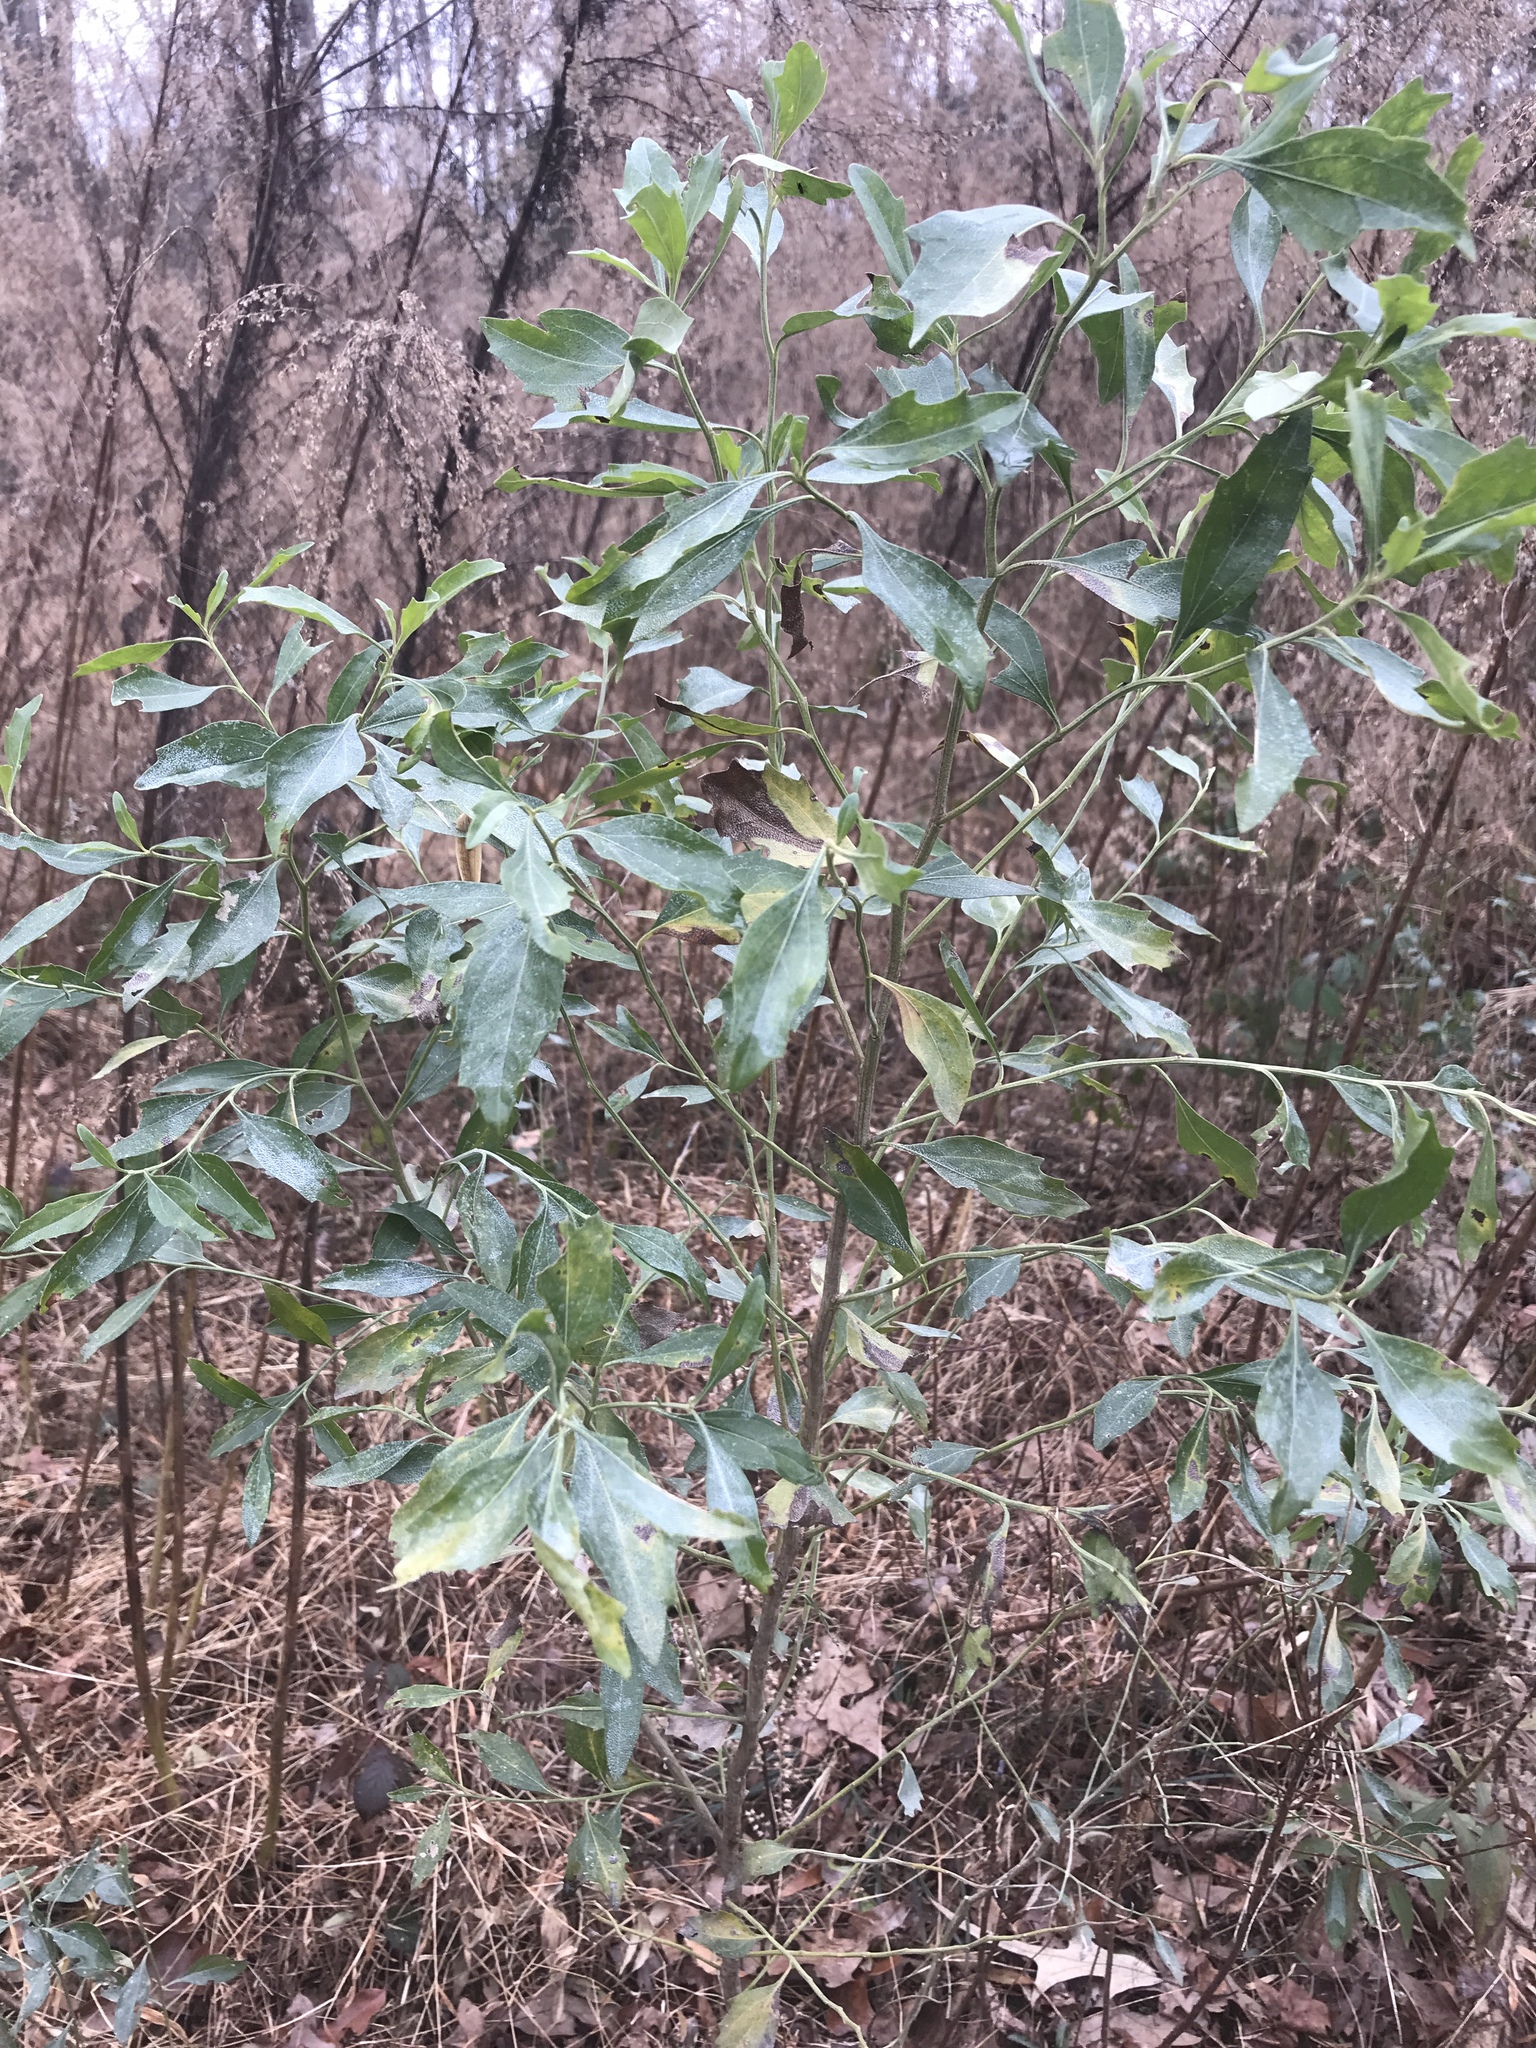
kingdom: Plantae
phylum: Tracheophyta
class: Magnoliopsida
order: Asterales
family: Asteraceae
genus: Baccharis
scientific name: Baccharis halimifolia
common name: Eastern baccharis
